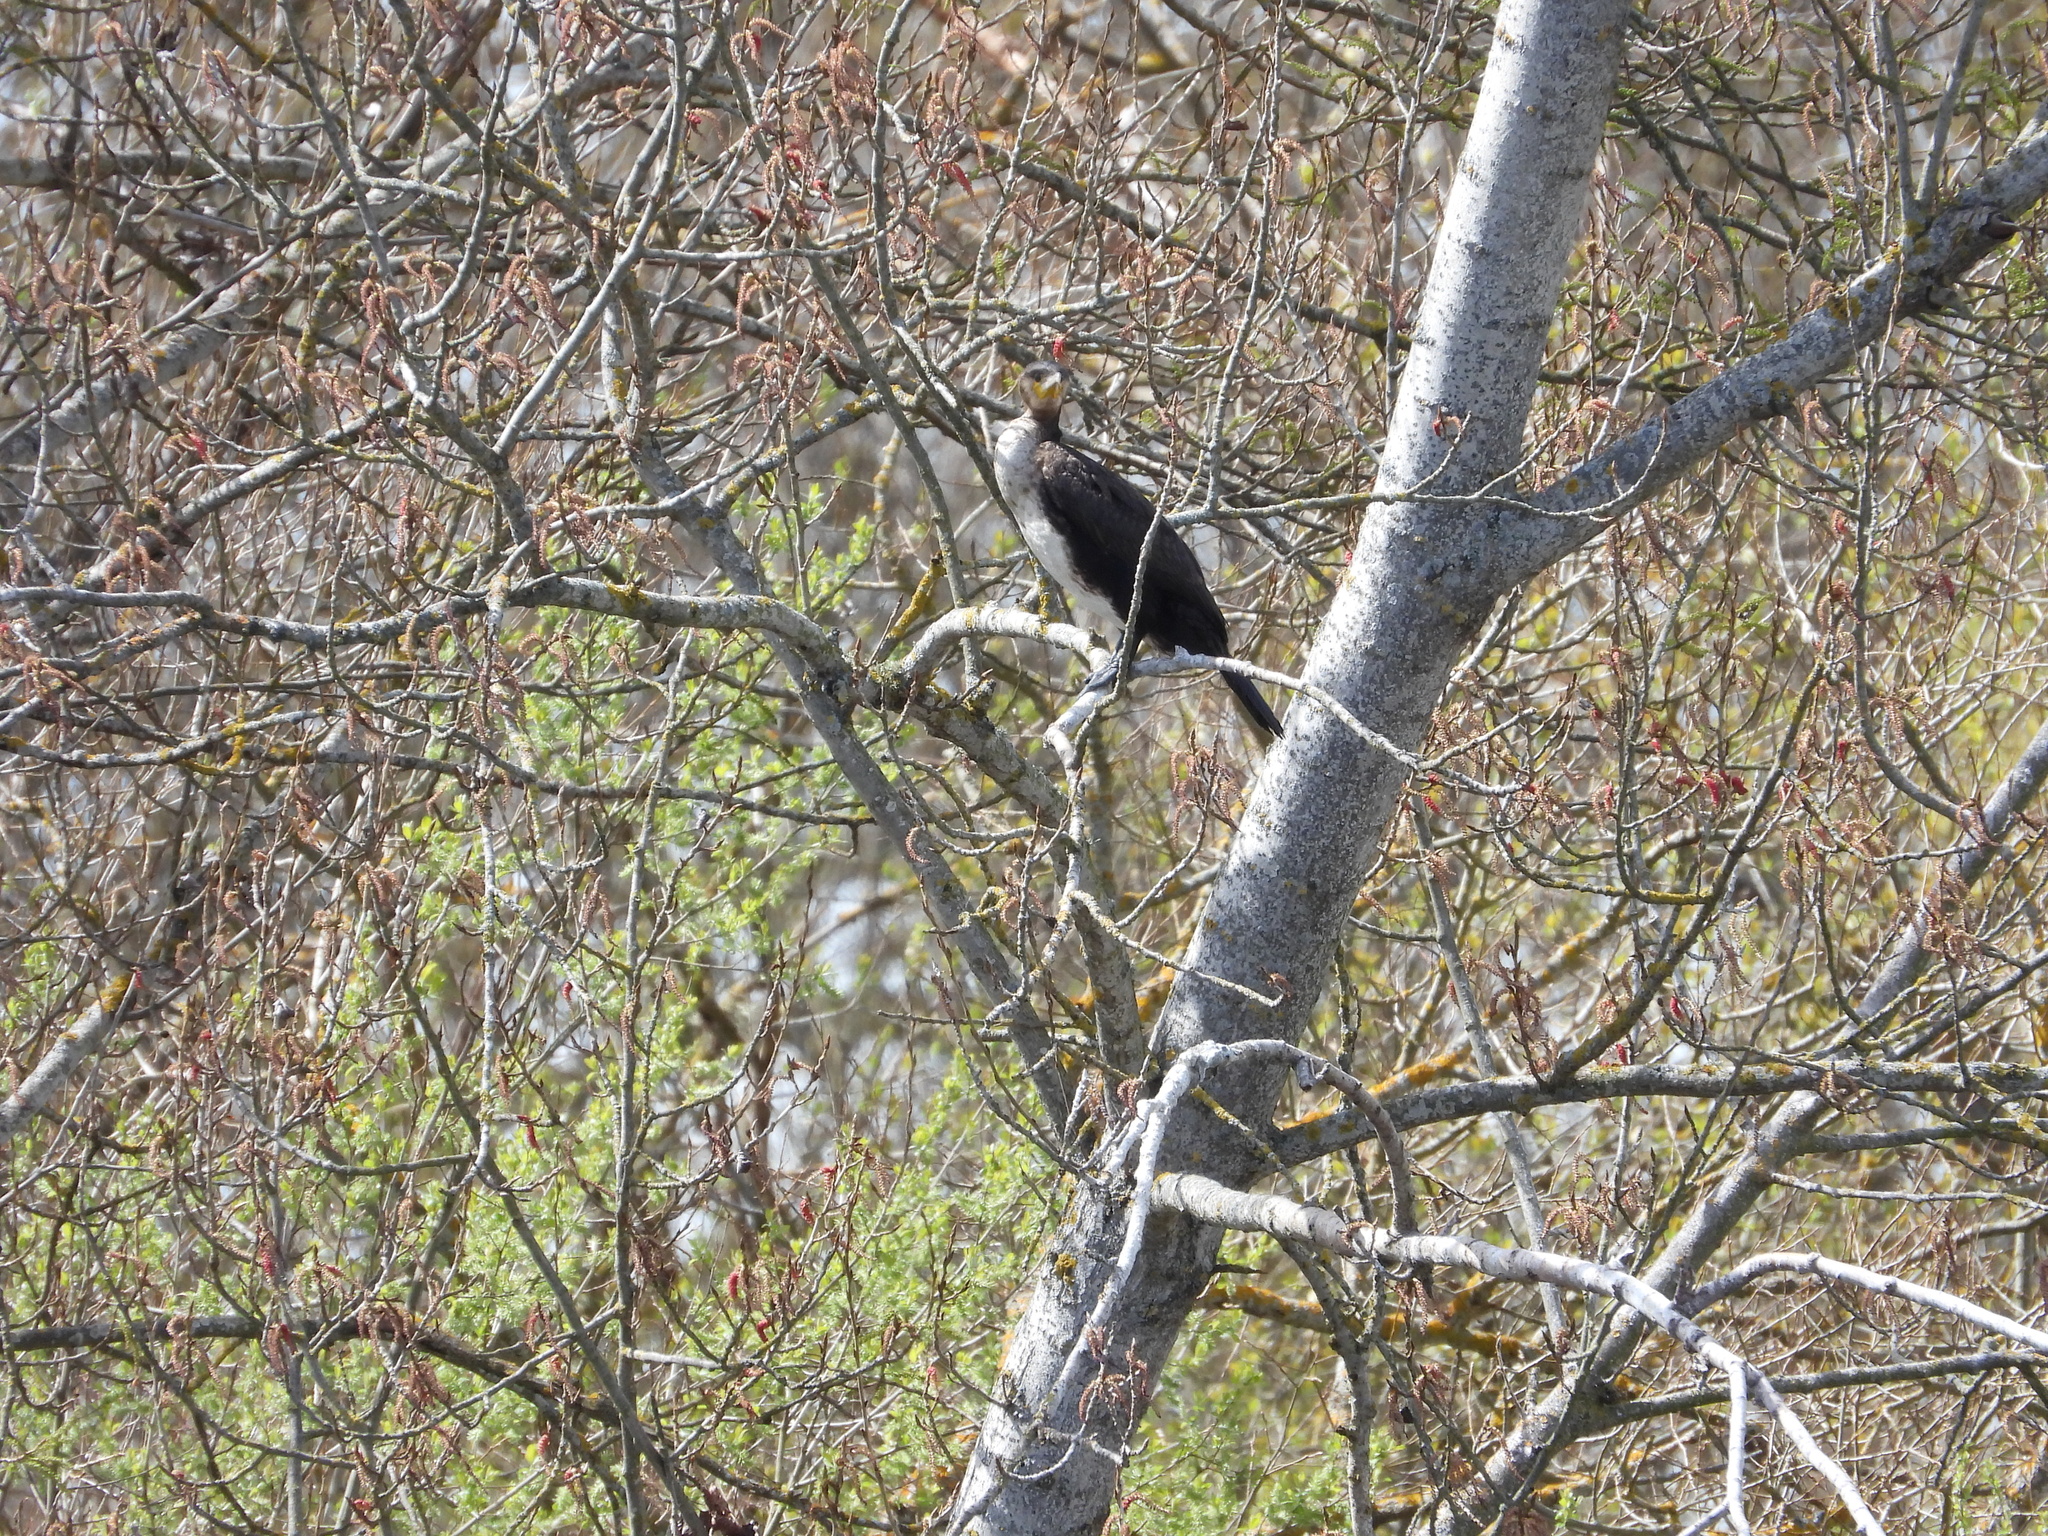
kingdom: Animalia
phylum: Chordata
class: Aves
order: Suliformes
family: Phalacrocoracidae
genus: Phalacrocorax
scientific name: Phalacrocorax carbo
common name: Great cormorant
